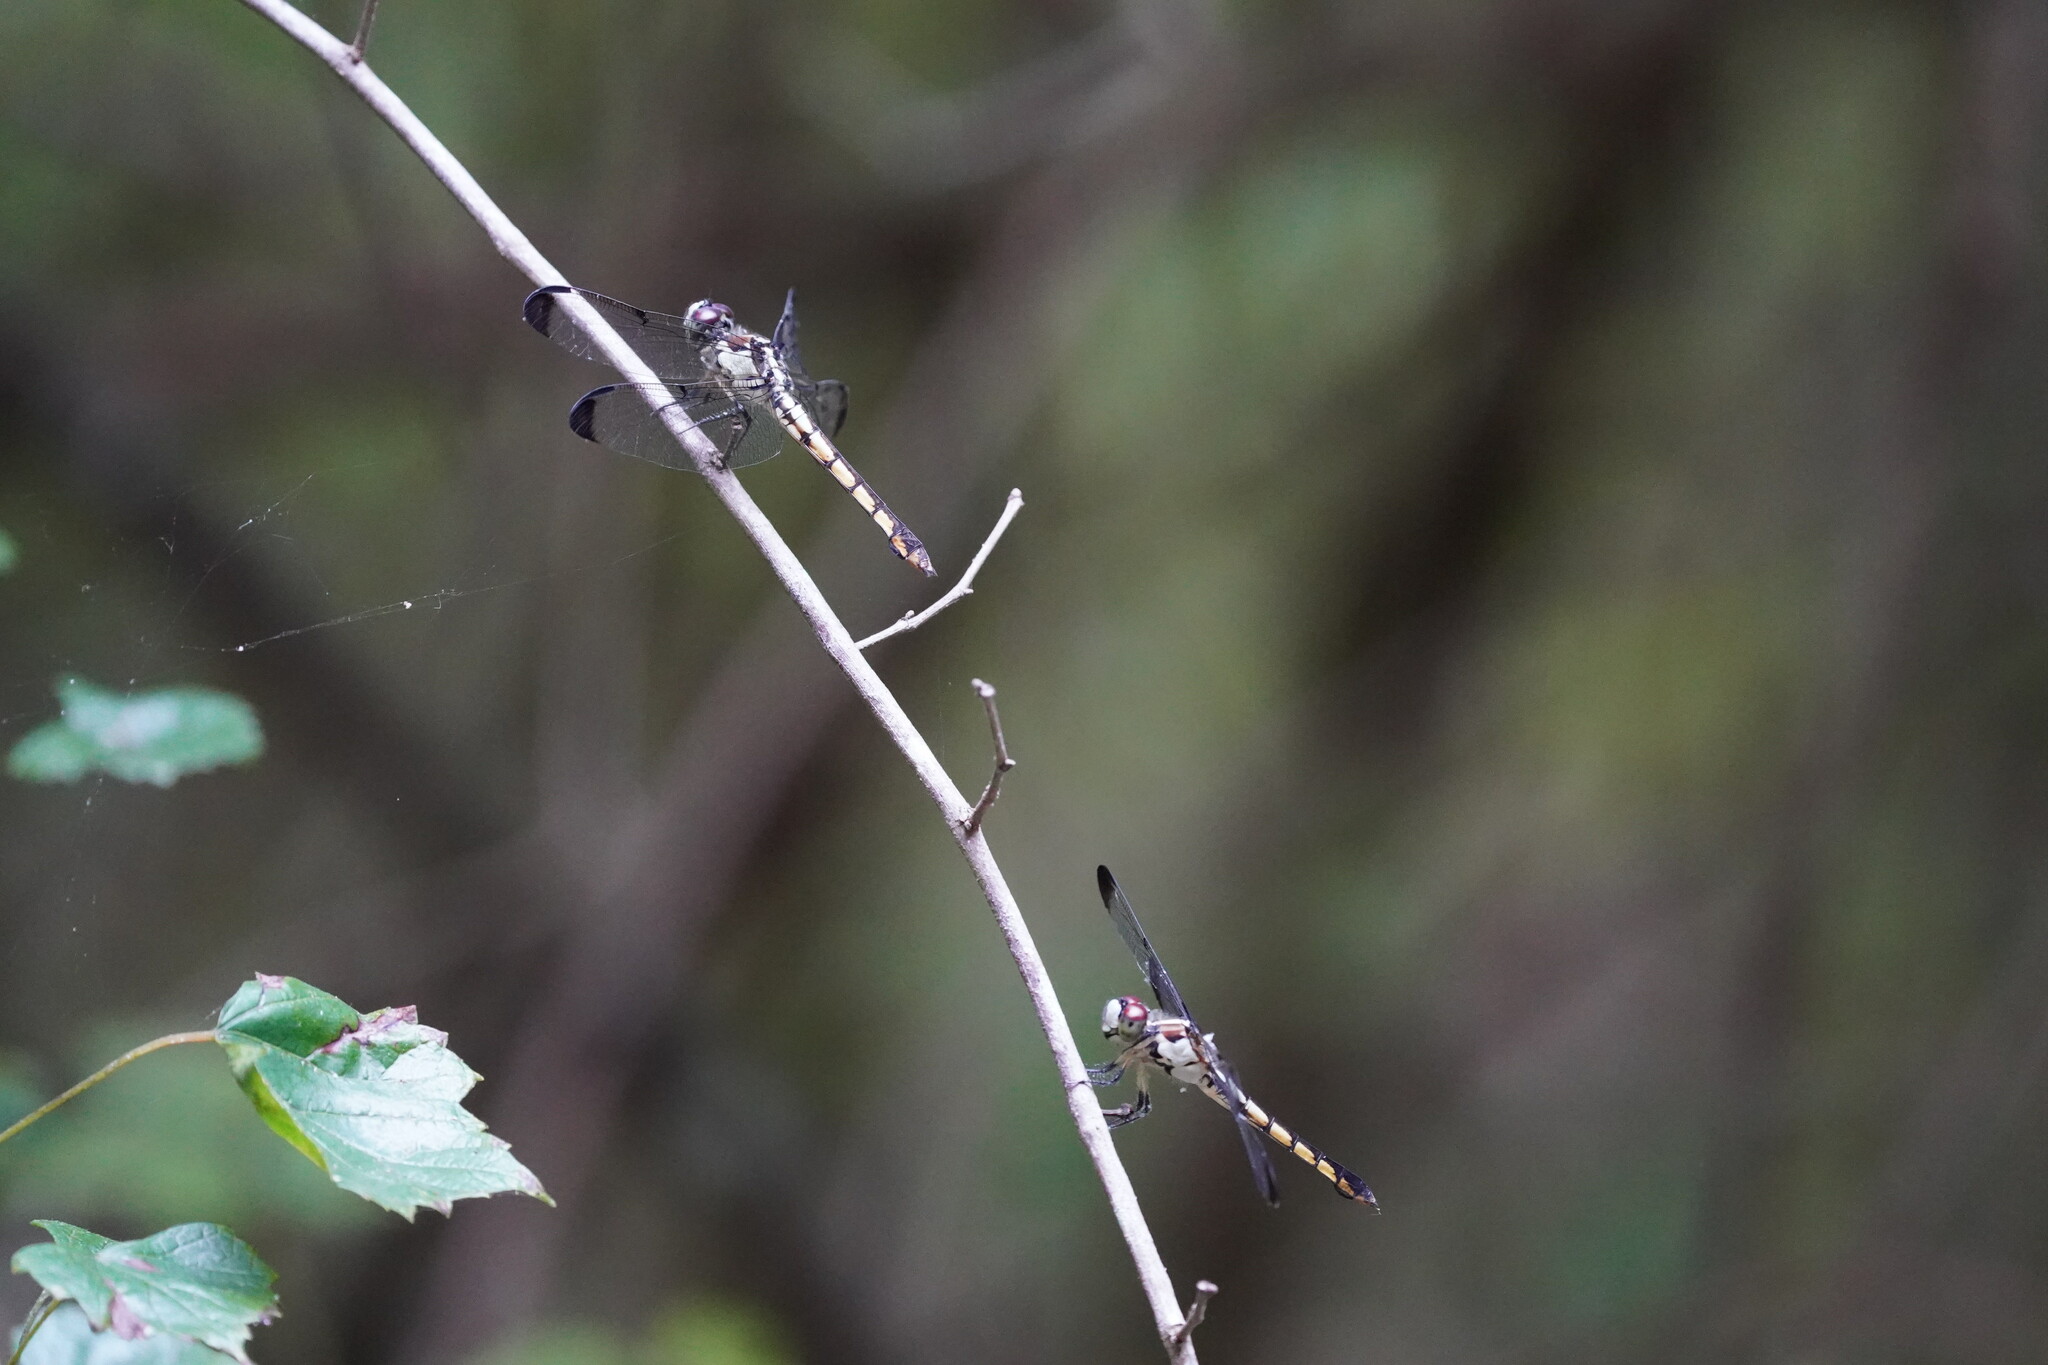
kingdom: Animalia
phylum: Arthropoda
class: Insecta
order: Odonata
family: Libellulidae
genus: Libellula
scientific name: Libellula vibrans
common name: Great blue skimmer
